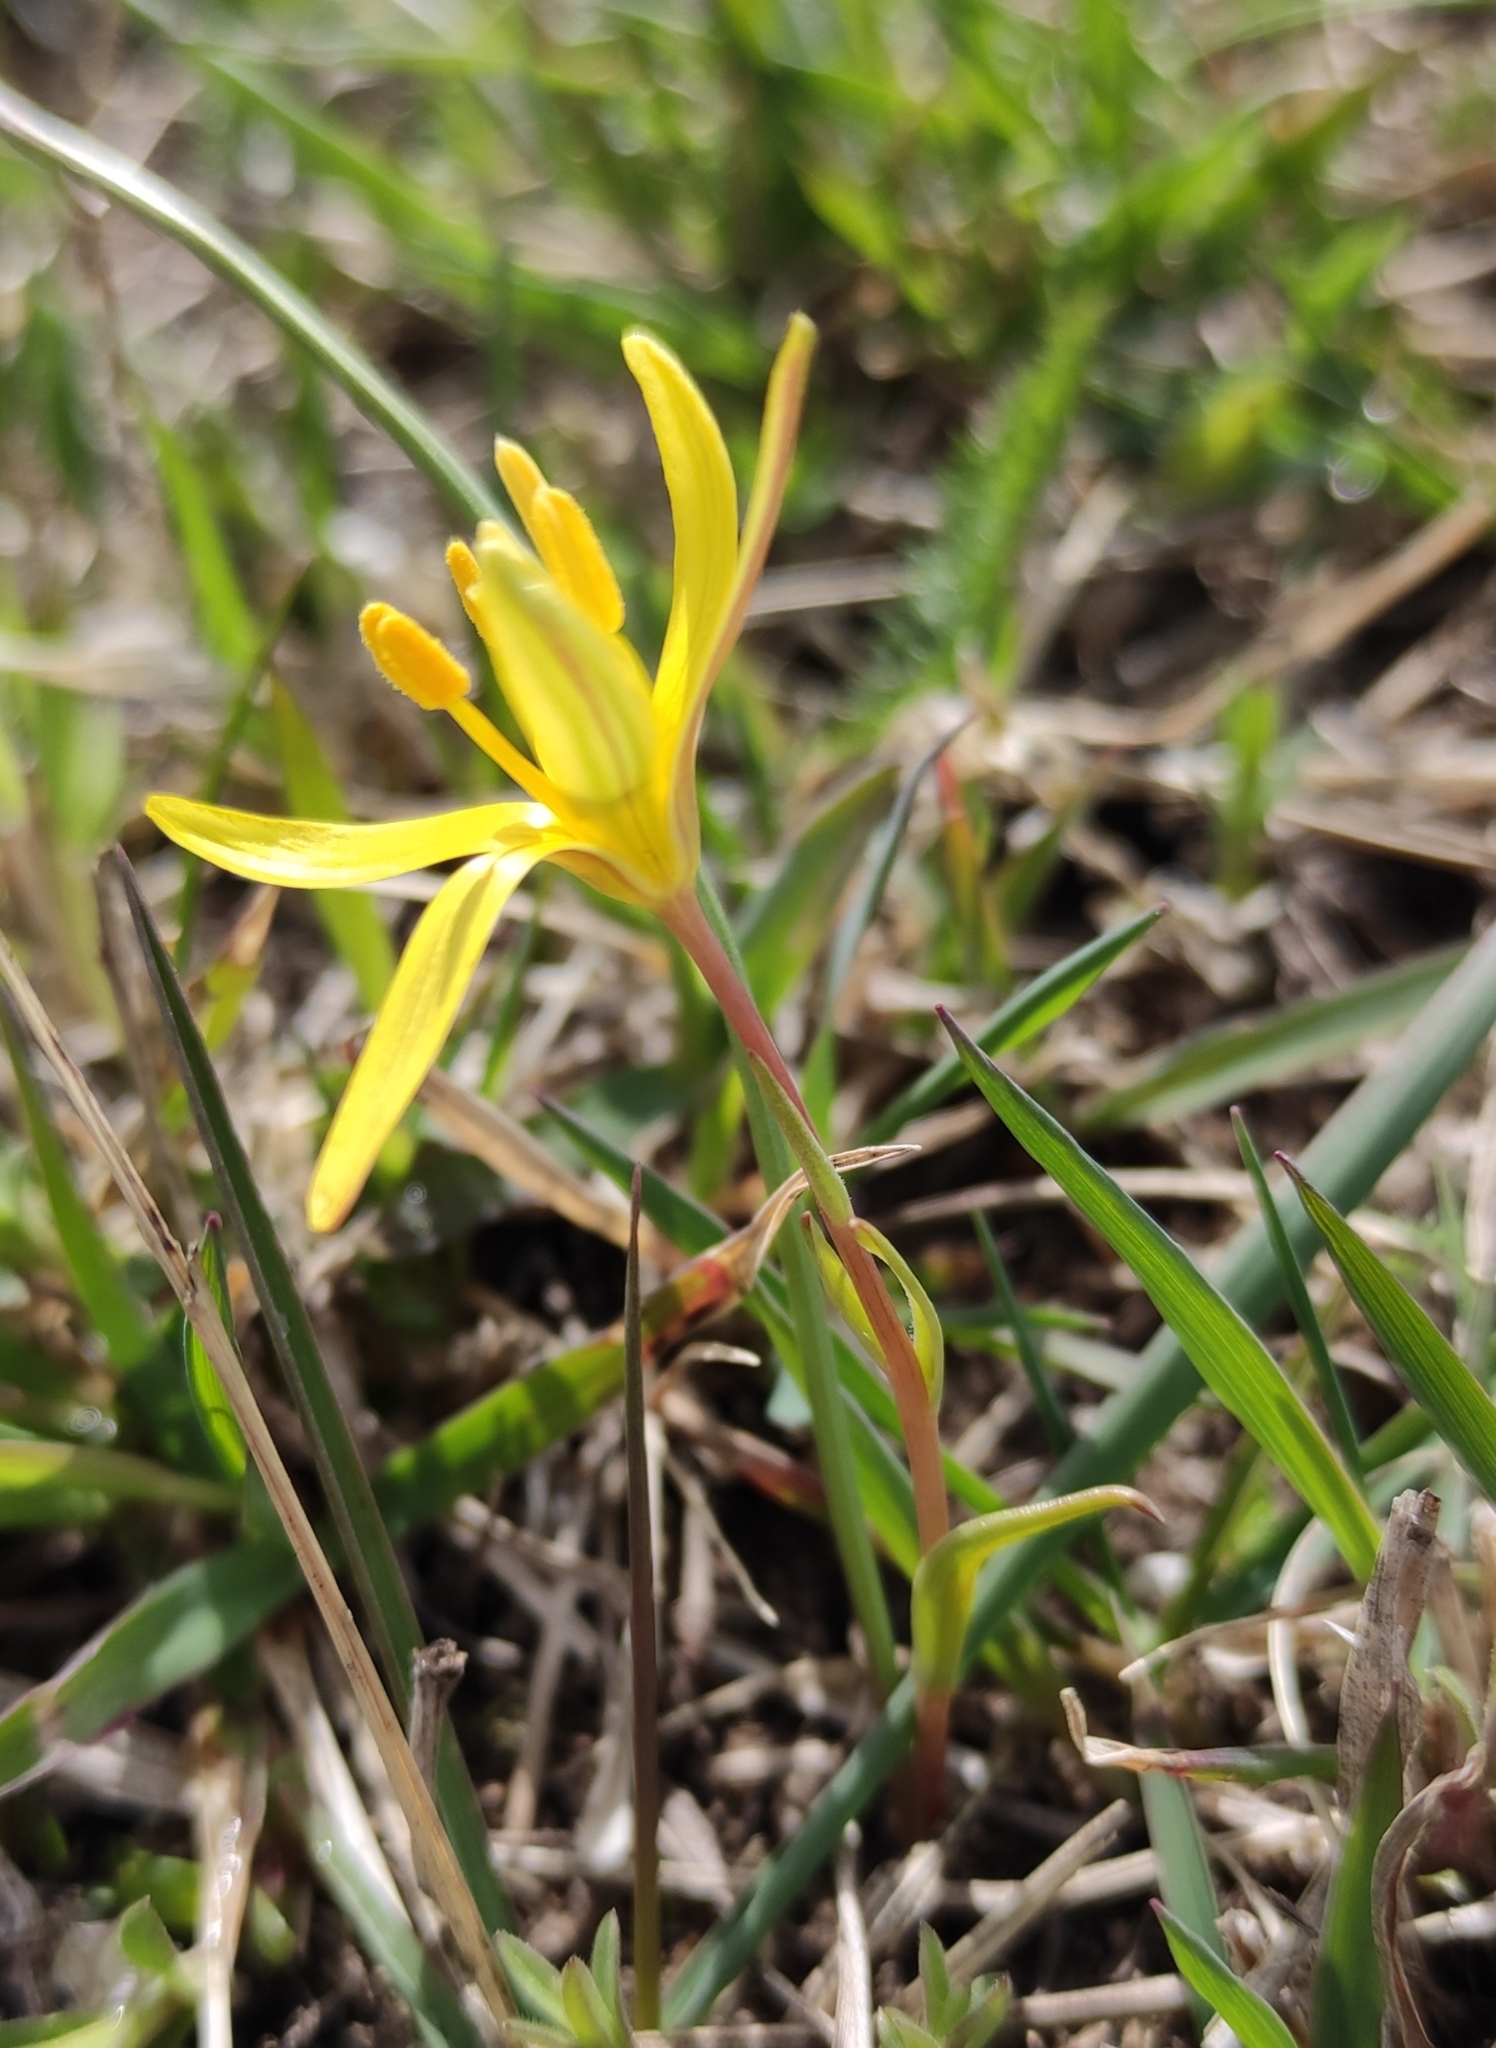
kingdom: Plantae
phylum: Tracheophyta
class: Liliopsida
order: Liliales
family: Liliaceae
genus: Gagea
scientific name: Gagea pauciflora
